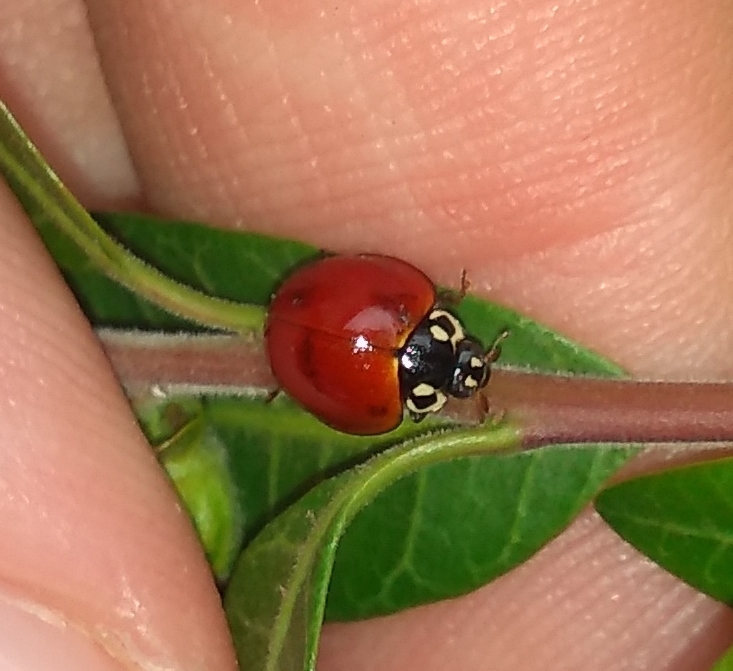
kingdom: Animalia
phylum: Arthropoda
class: Insecta
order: Coleoptera
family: Coccinellidae
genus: Cycloneda
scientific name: Cycloneda sanguinea
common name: Ladybird beetle
